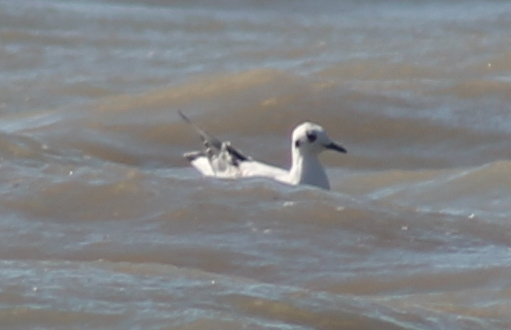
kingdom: Animalia
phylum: Chordata
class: Aves
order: Charadriiformes
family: Laridae
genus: Chroicocephalus
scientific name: Chroicocephalus philadelphia
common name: Bonaparte's gull
